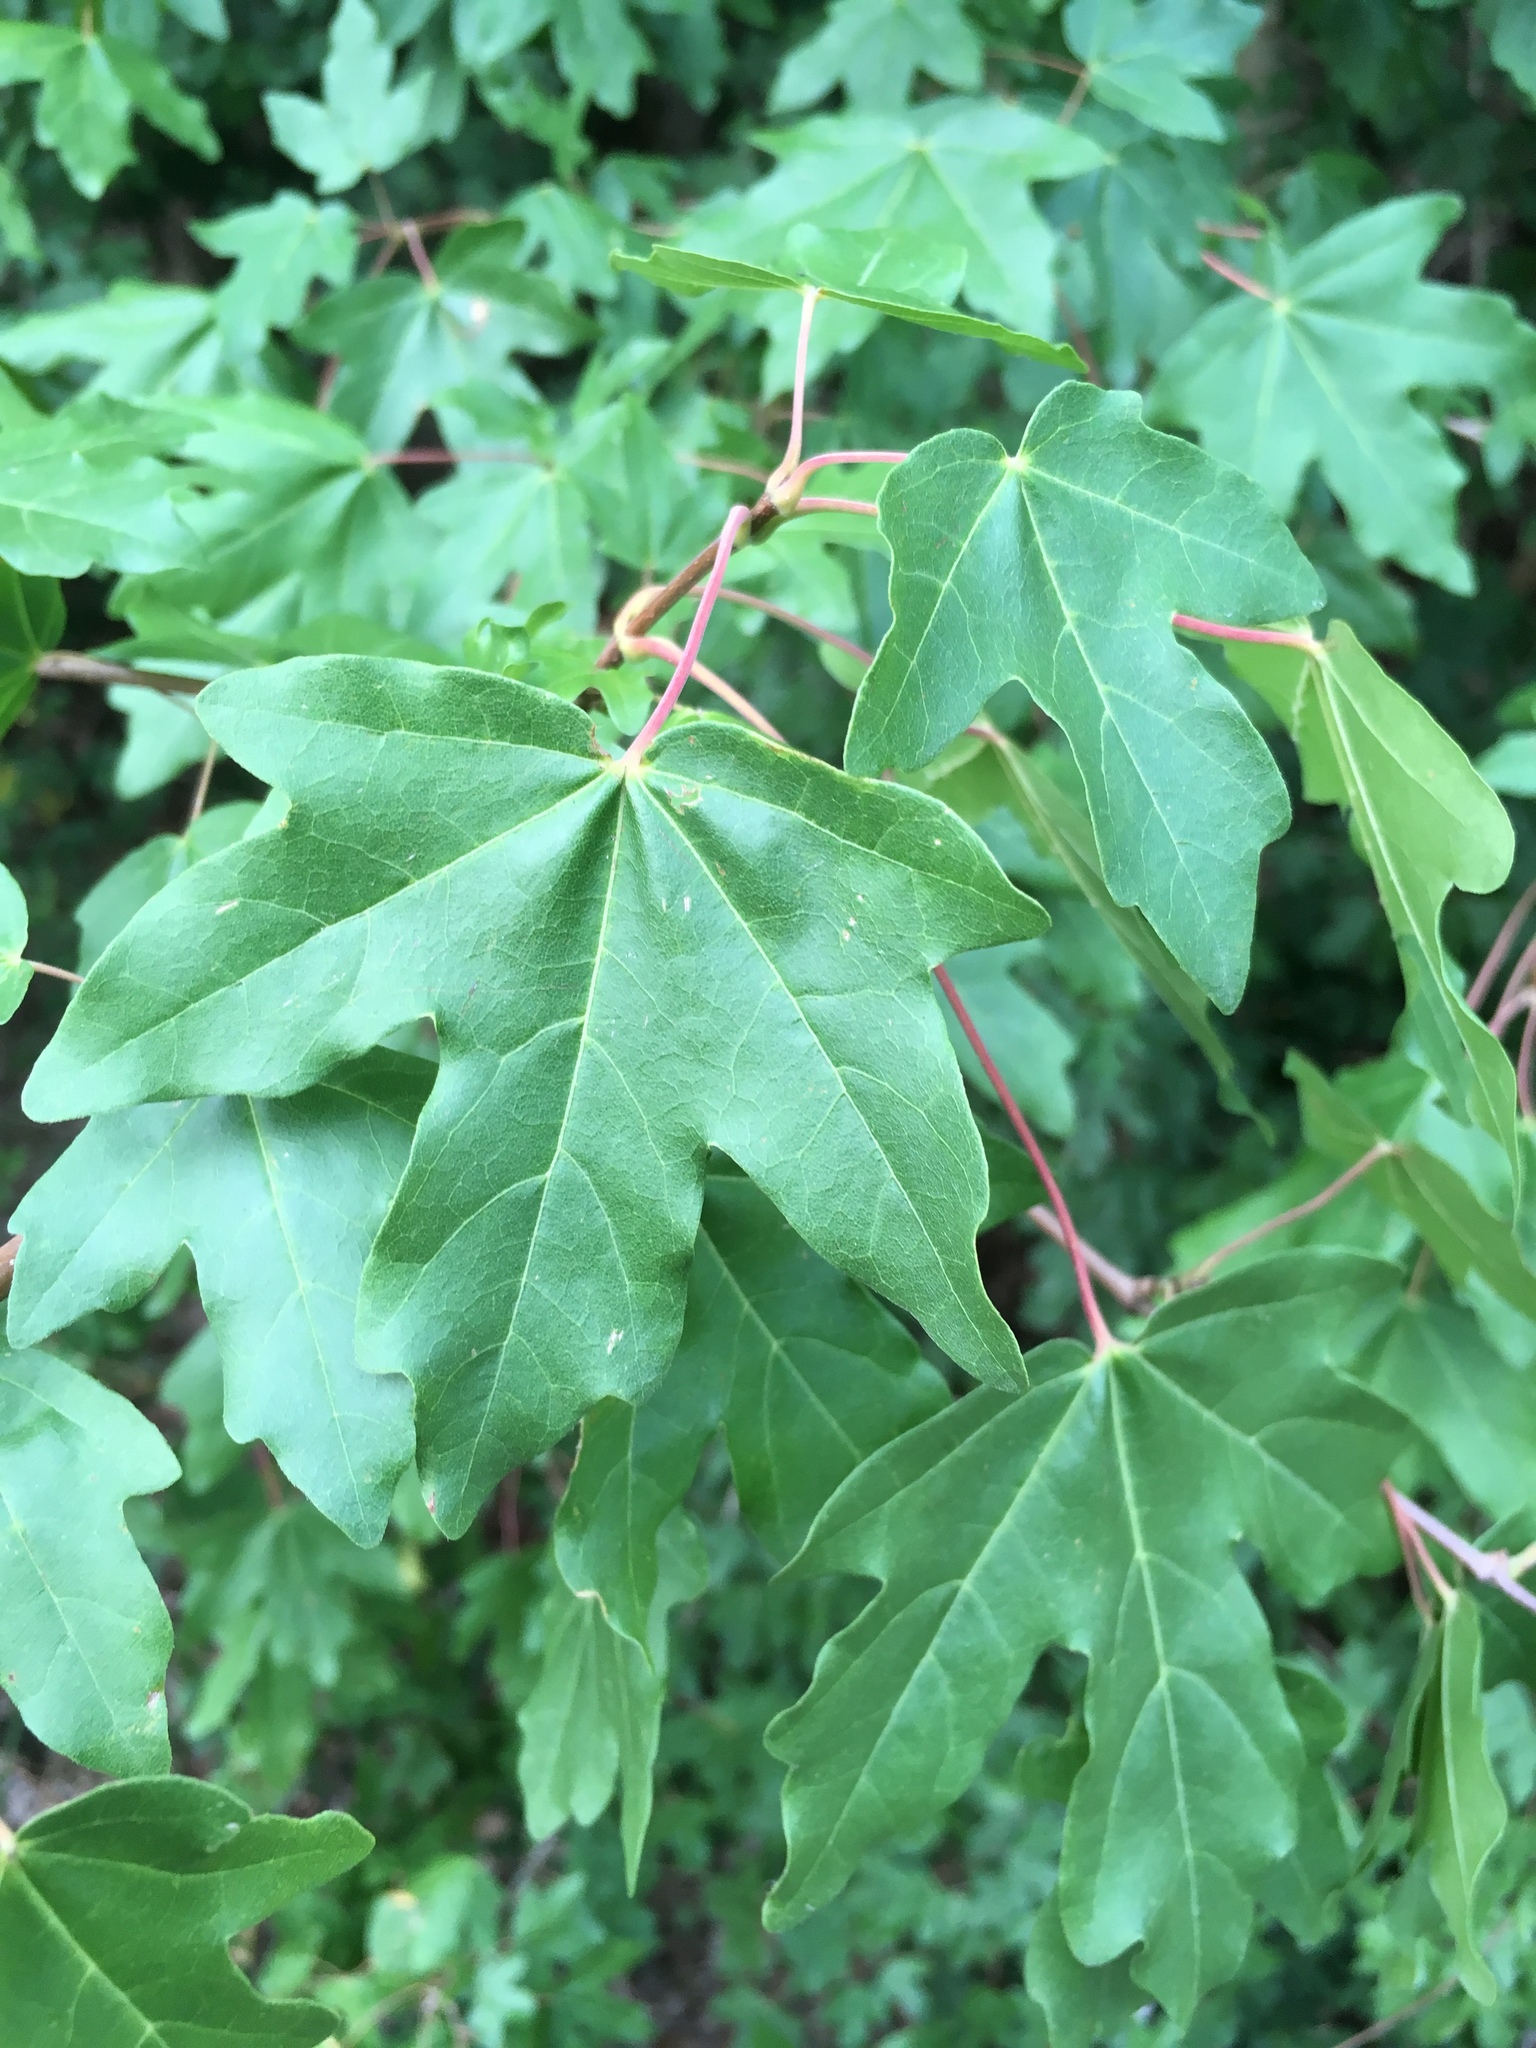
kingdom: Plantae
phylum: Tracheophyta
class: Magnoliopsida
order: Sapindales
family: Sapindaceae
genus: Acer
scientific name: Acer campestre
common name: Field maple
